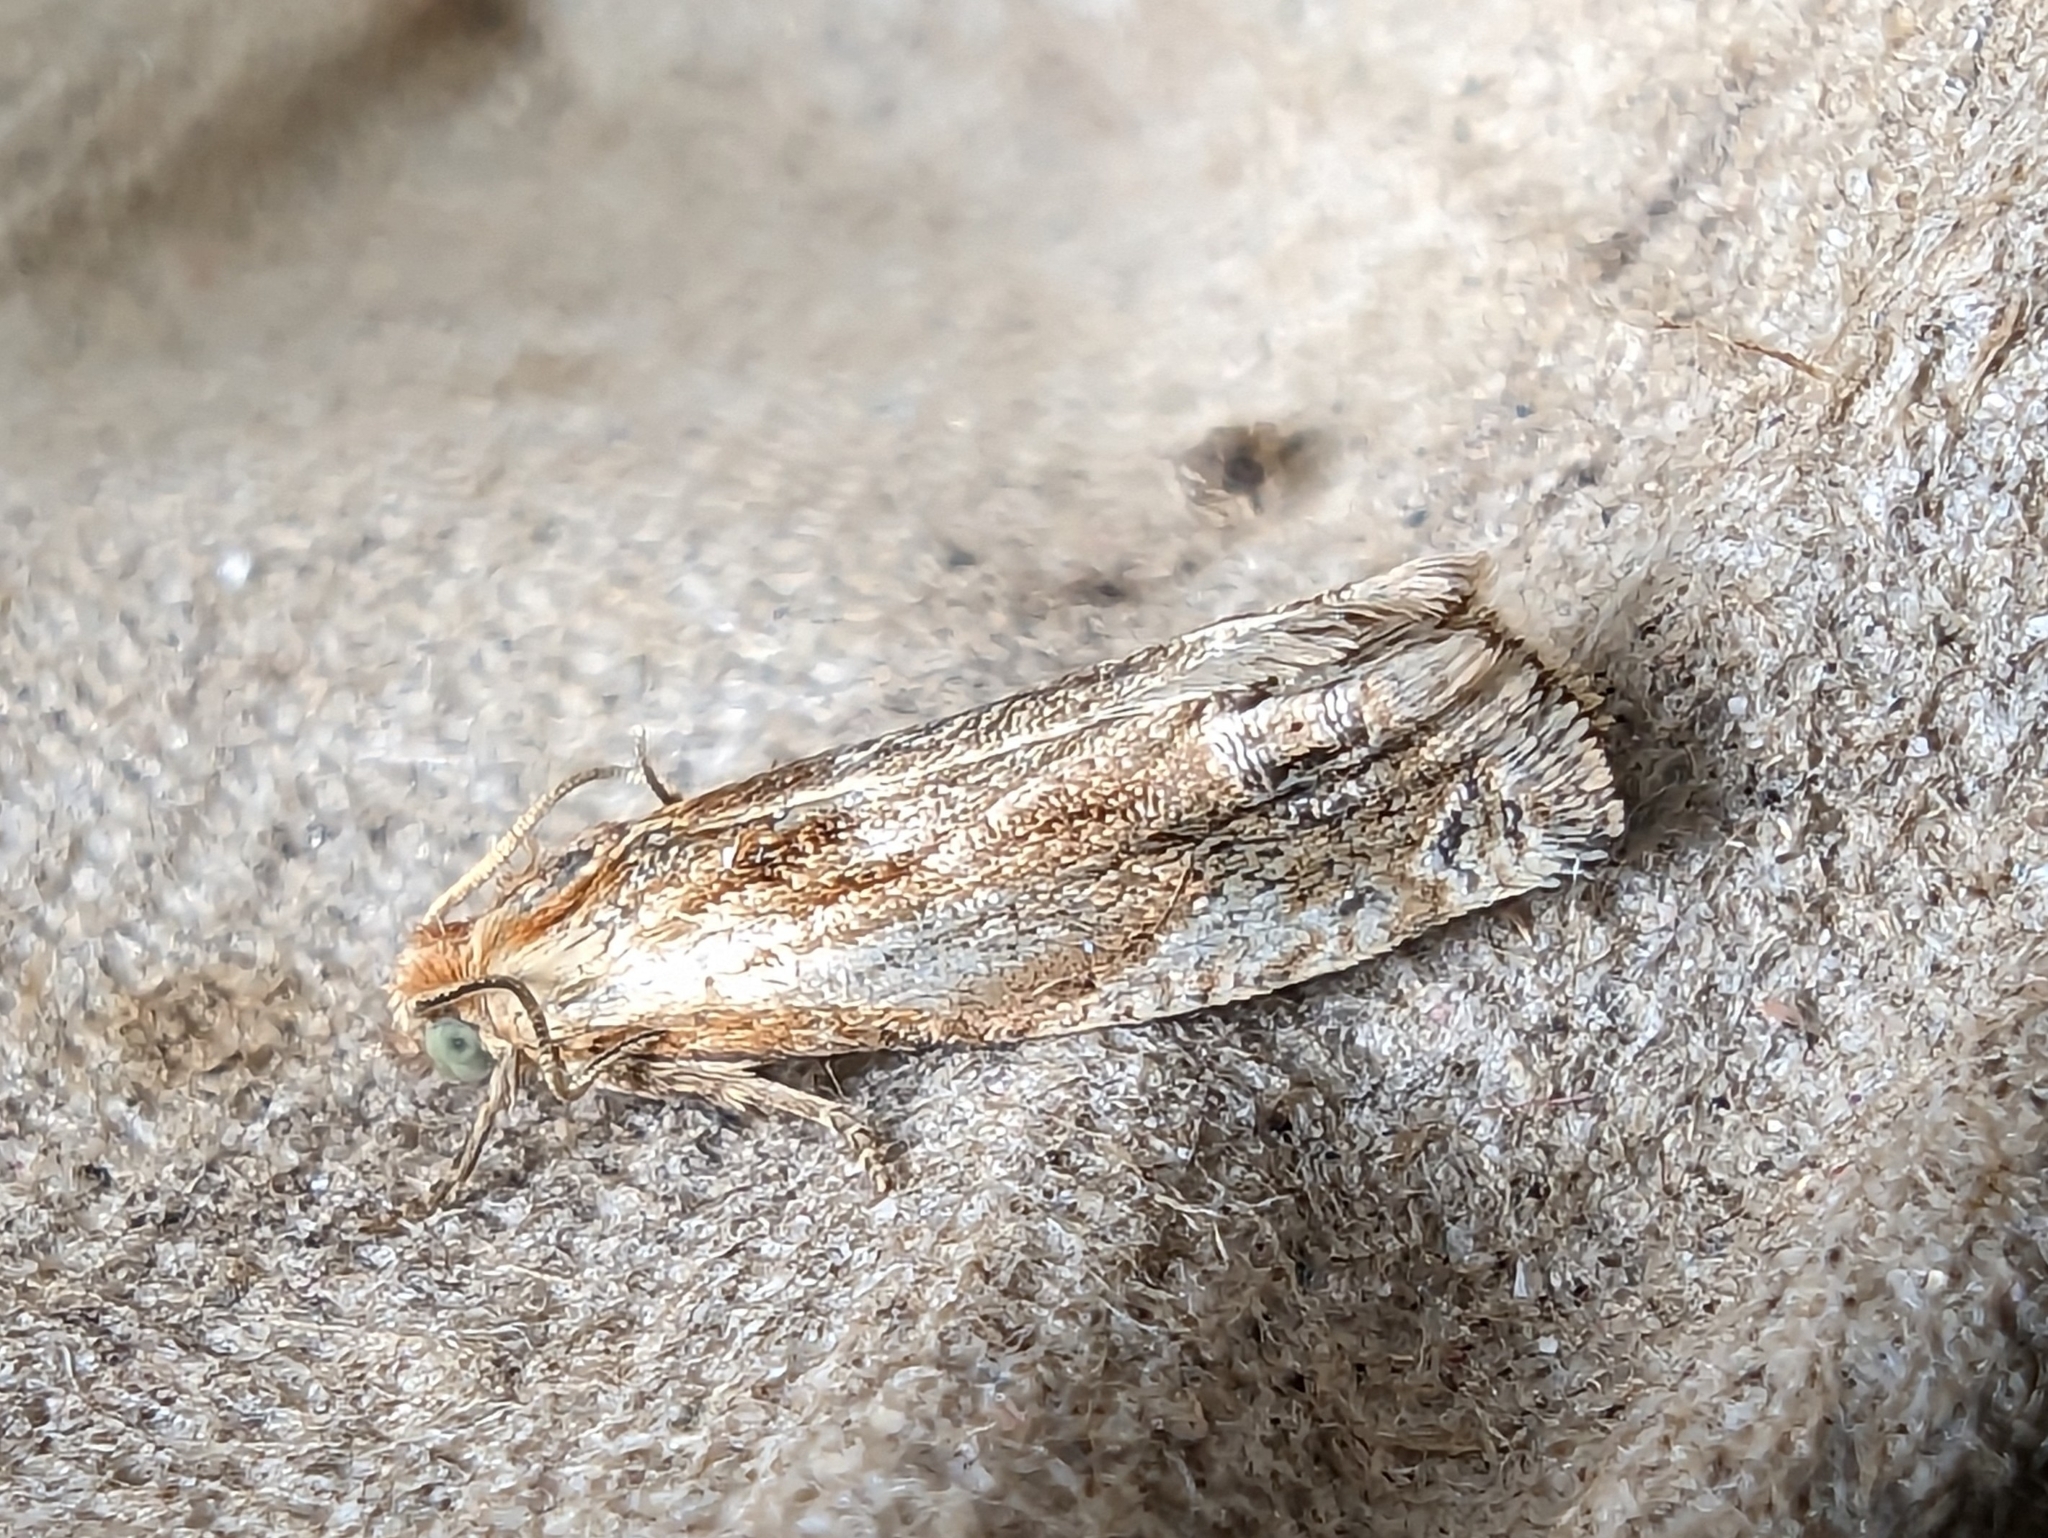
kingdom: Animalia
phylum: Arthropoda
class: Insecta
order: Lepidoptera
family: Tortricidae
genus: Eucosma
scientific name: Eucosma cana
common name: Hoary belle
